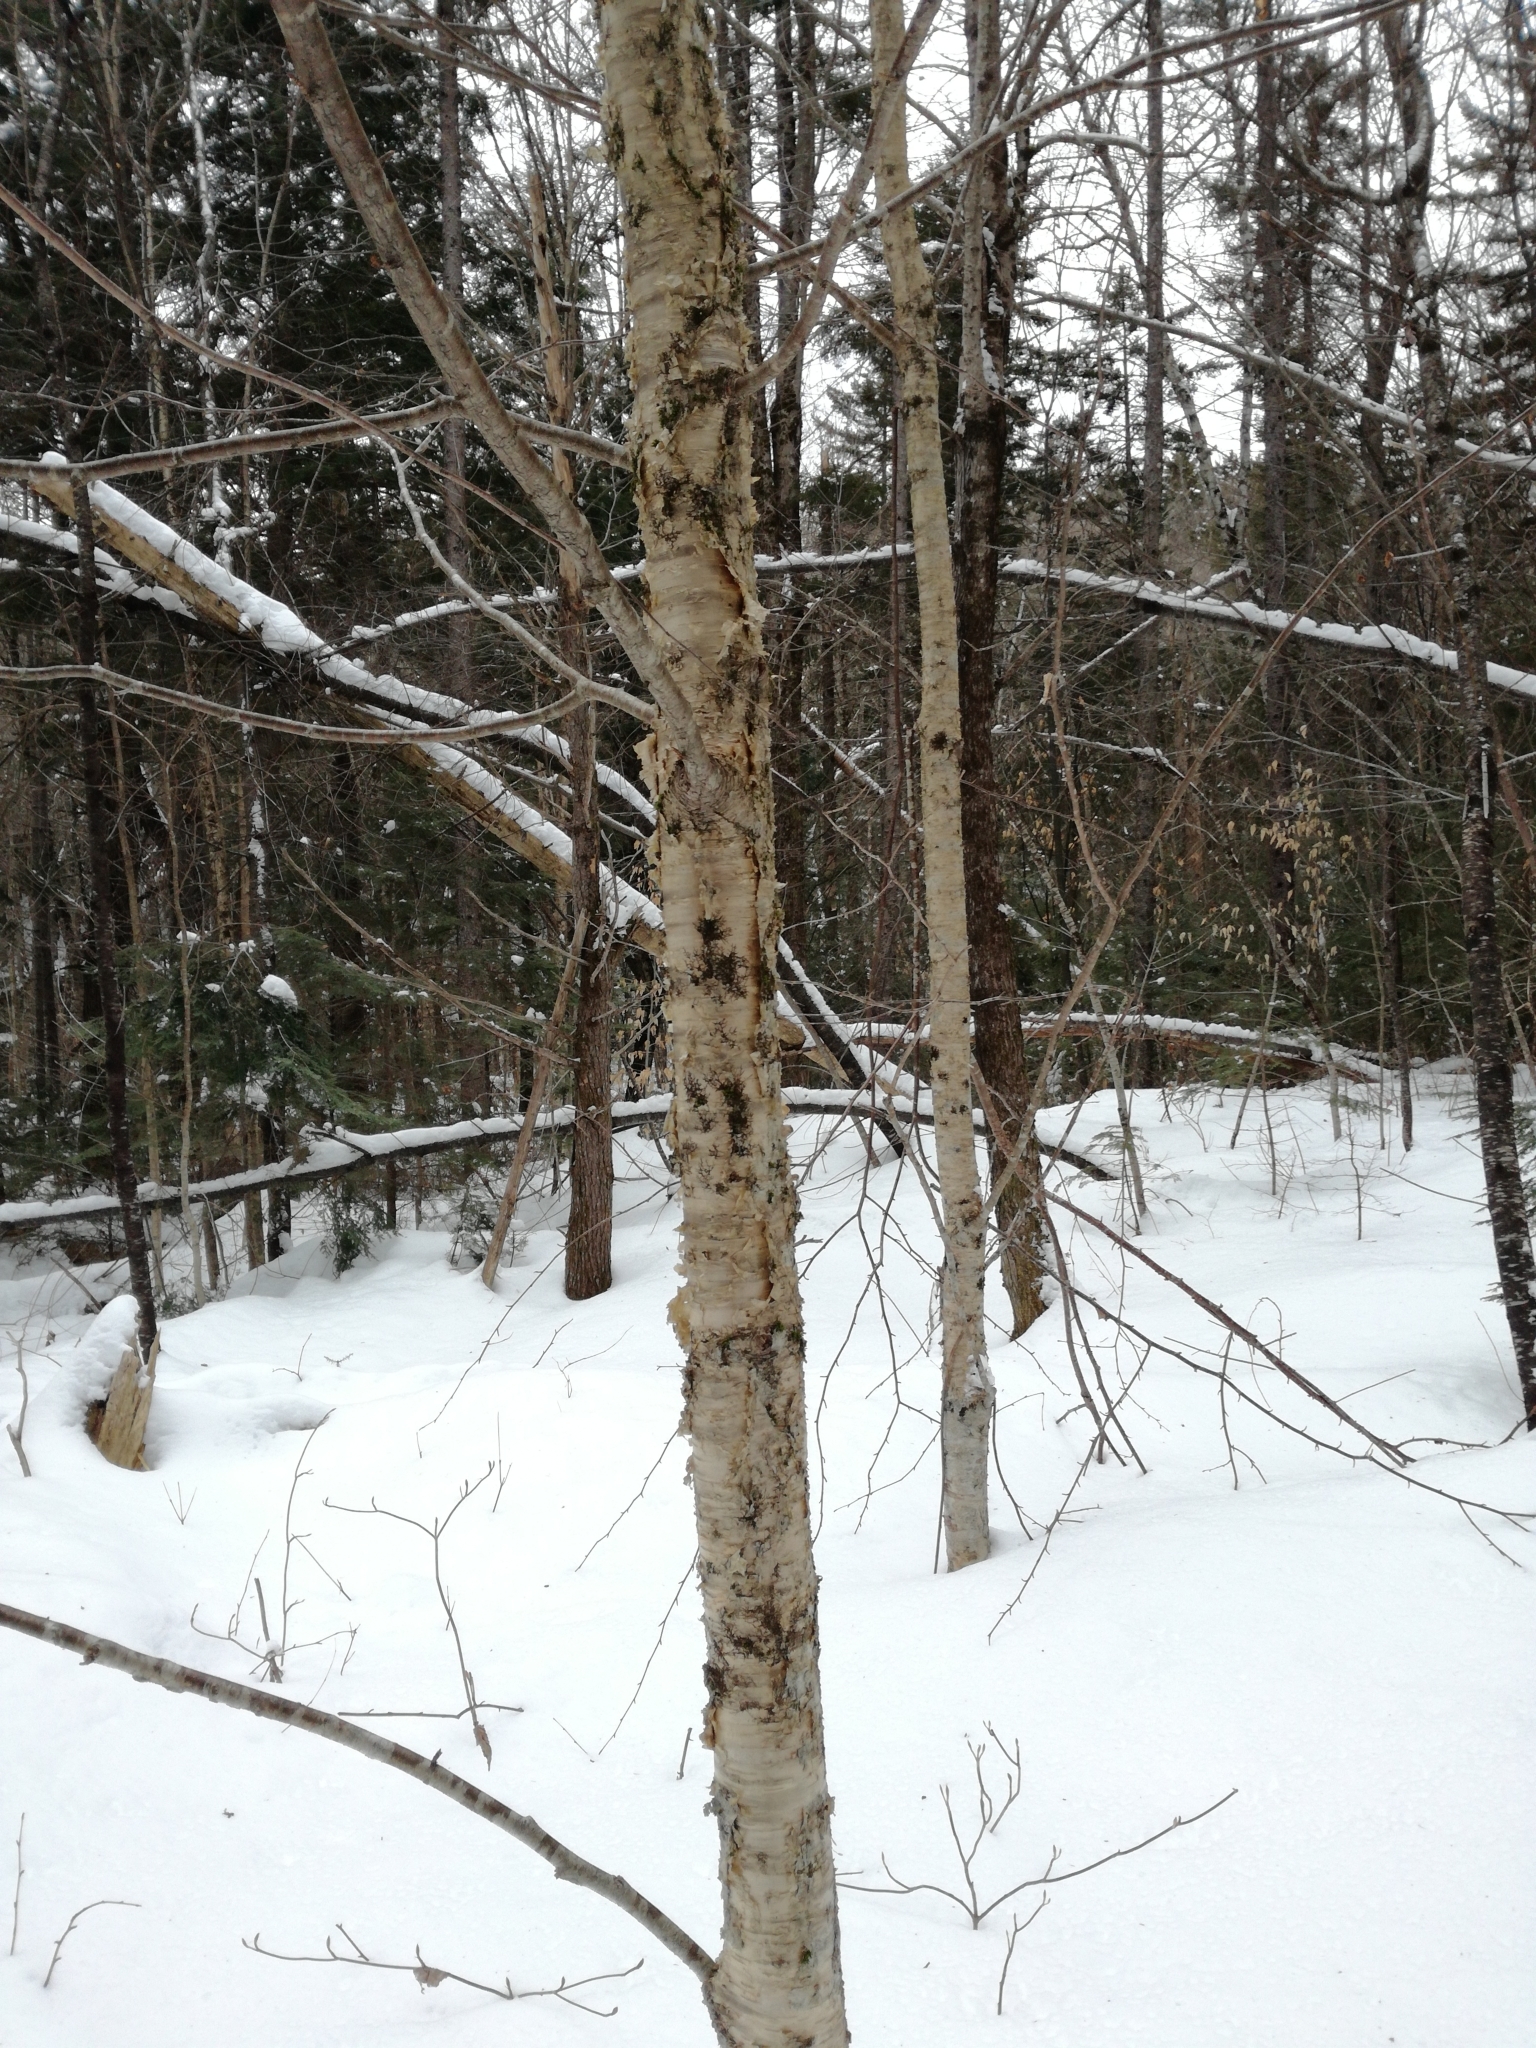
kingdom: Plantae
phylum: Tracheophyta
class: Magnoliopsida
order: Fagales
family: Betulaceae
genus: Betula
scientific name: Betula alleghaniensis
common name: Yellow birch
